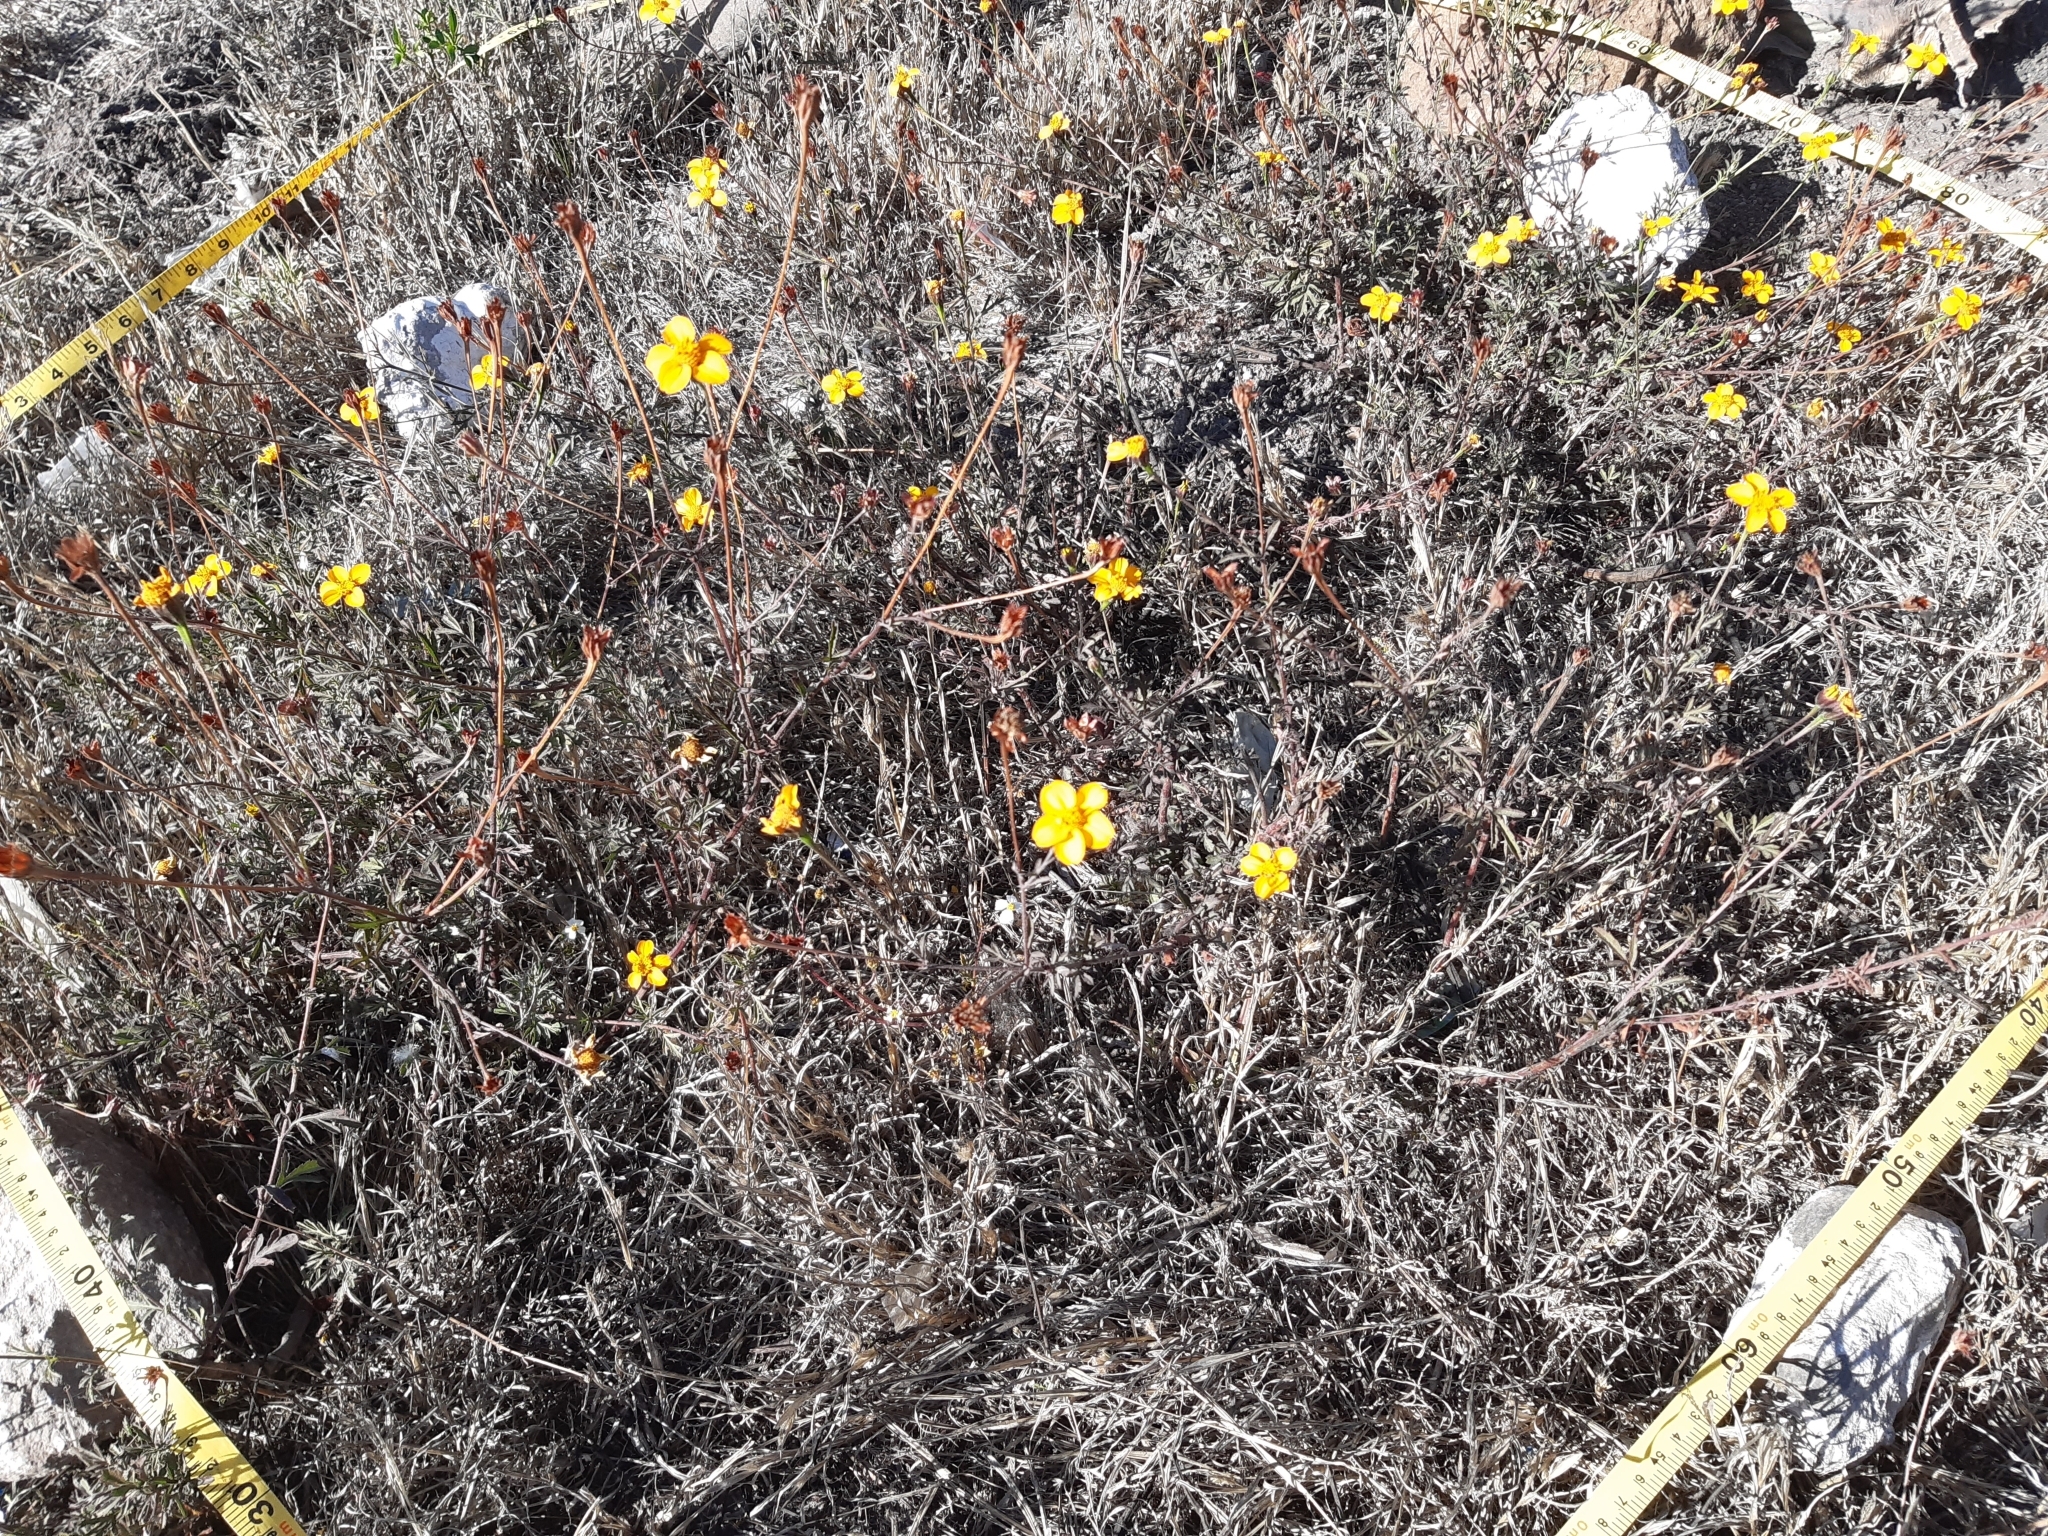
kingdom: Plantae
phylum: Tracheophyta
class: Magnoliopsida
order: Asterales
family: Asteraceae
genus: Dyssodia
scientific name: Dyssodia tagetiflora
